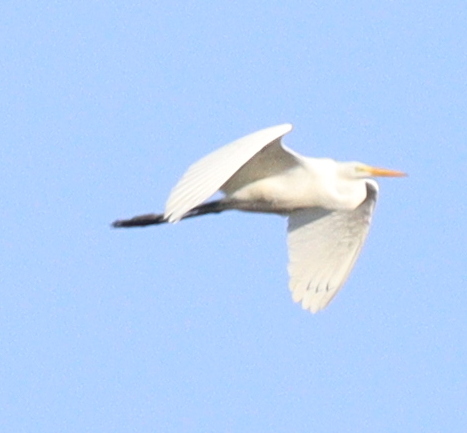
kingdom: Animalia
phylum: Chordata
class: Aves
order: Pelecaniformes
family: Ardeidae
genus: Ardea
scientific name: Ardea alba
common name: Great egret
